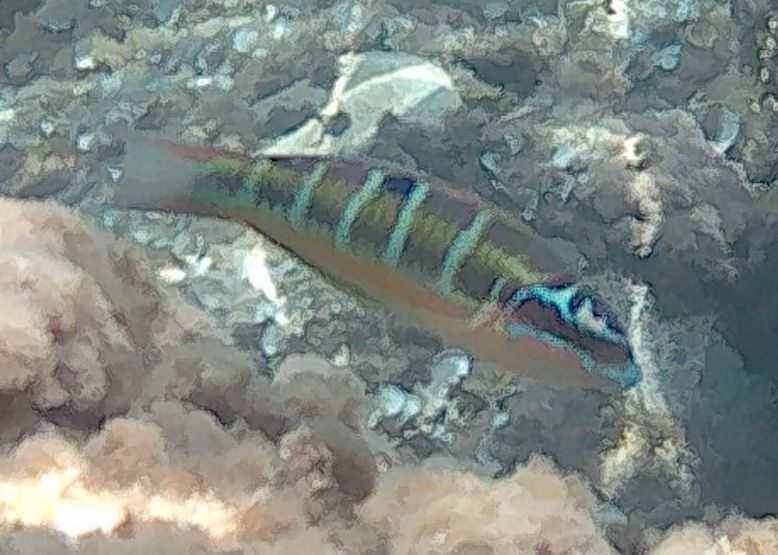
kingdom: Animalia
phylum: Chordata
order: Perciformes
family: Labridae
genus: Thalassoma
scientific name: Thalassoma pavo
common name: Ornate wrasse
